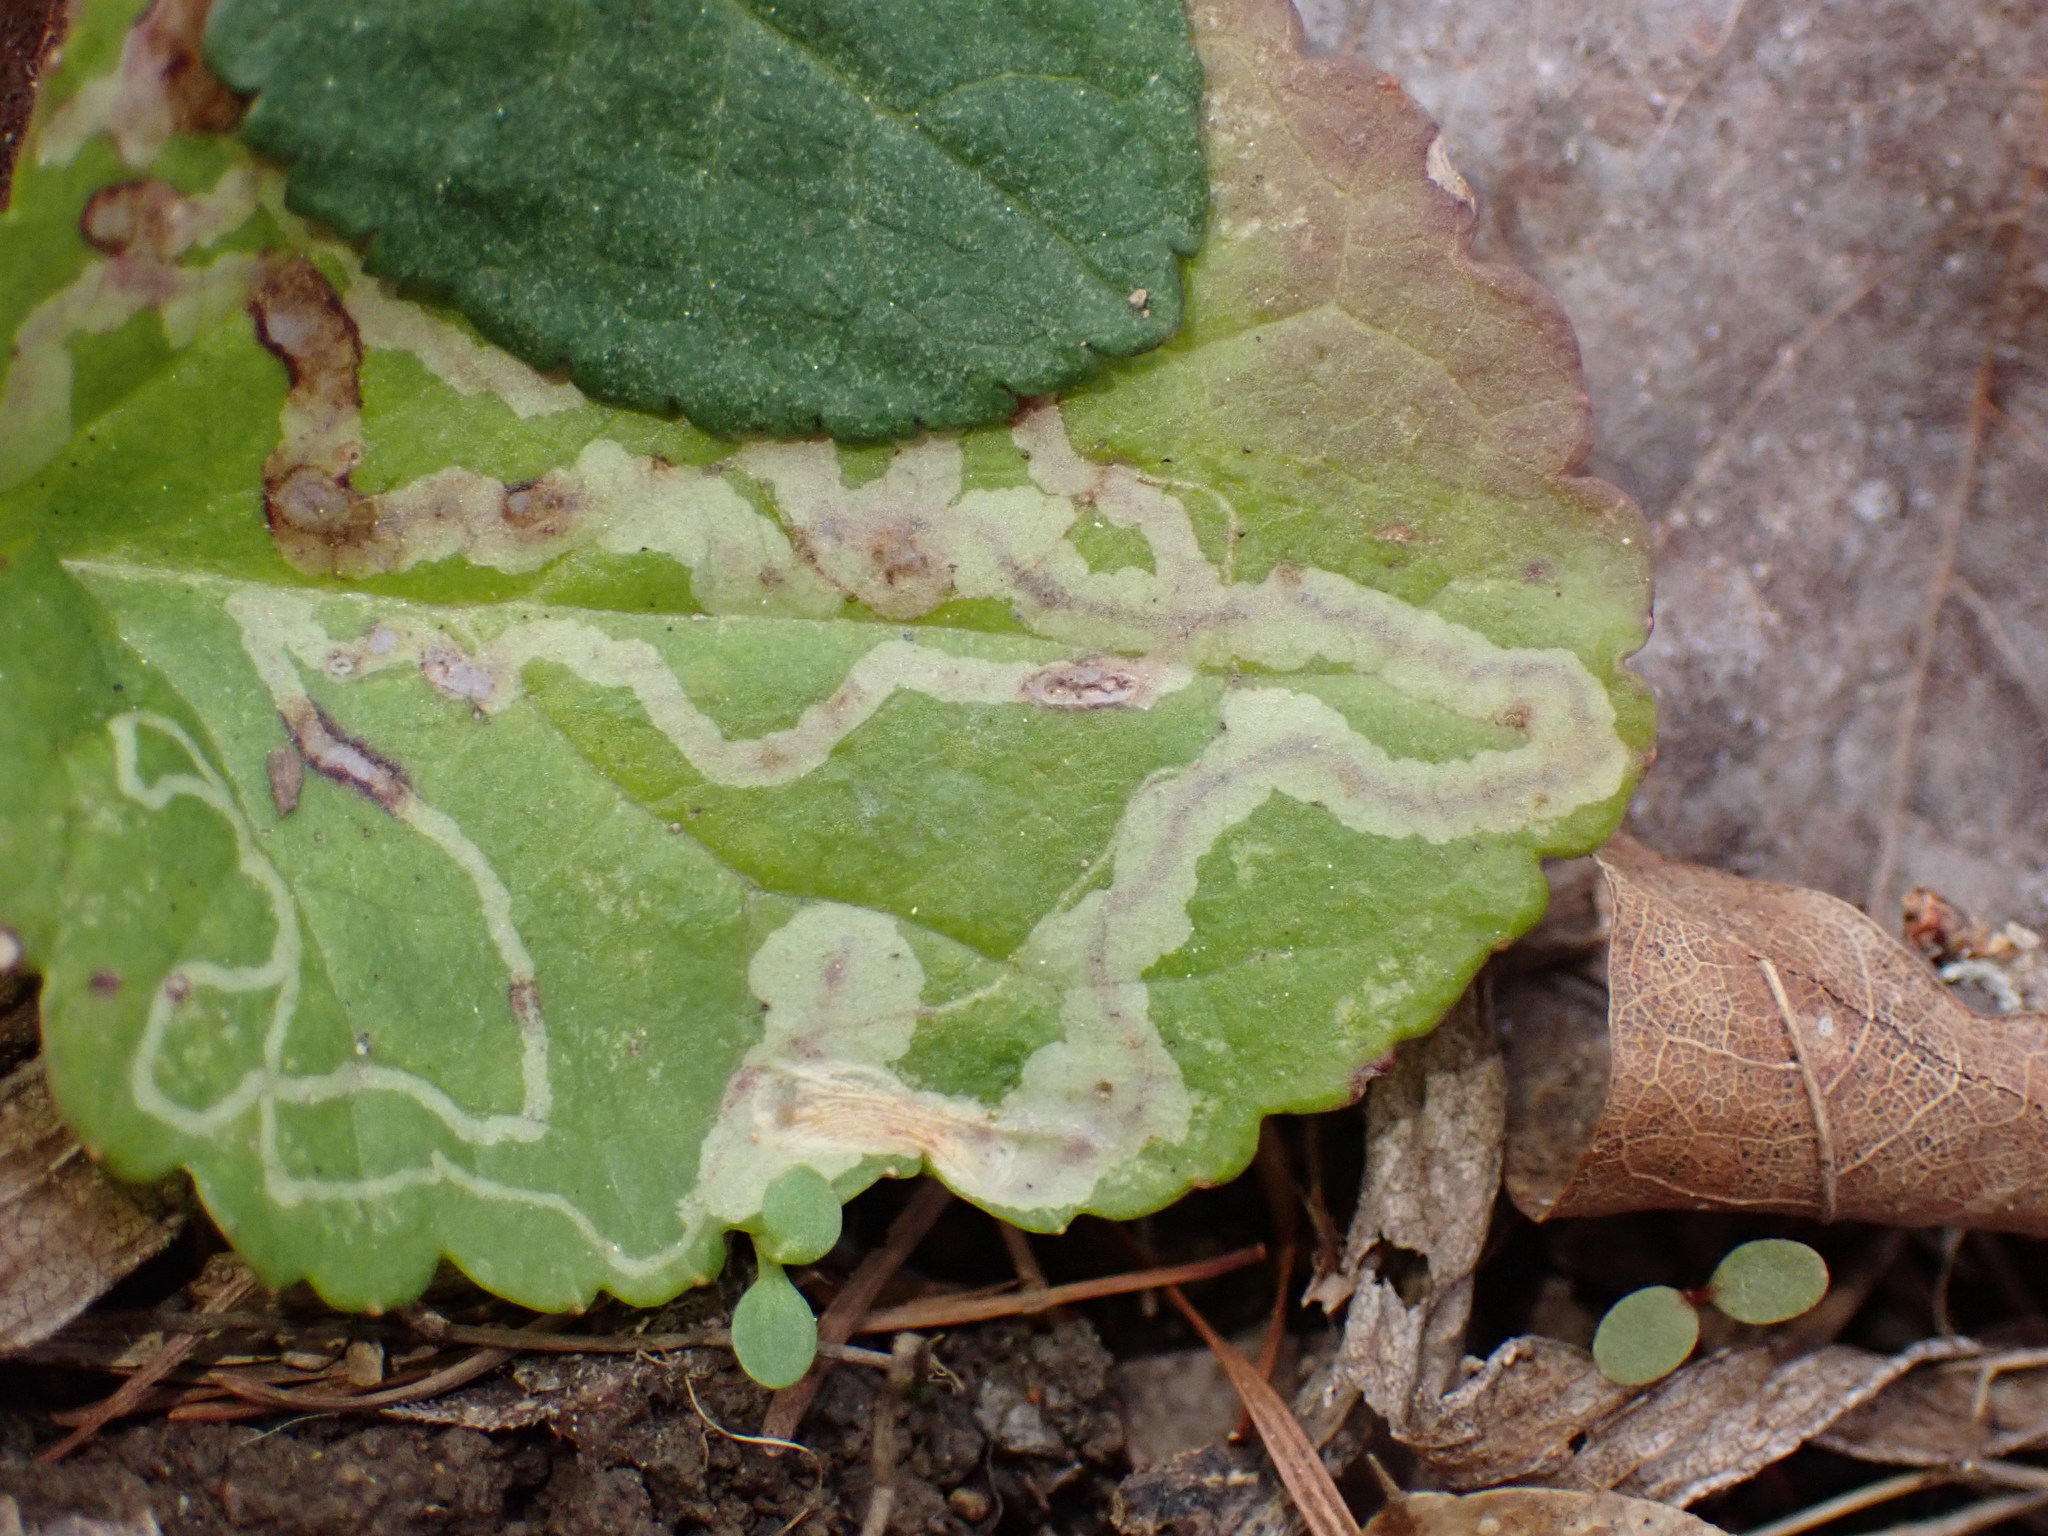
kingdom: Animalia
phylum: Arthropoda
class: Insecta
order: Lepidoptera
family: Gracillariidae
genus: Phyllocnistis
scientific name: Phyllocnistis insignis
